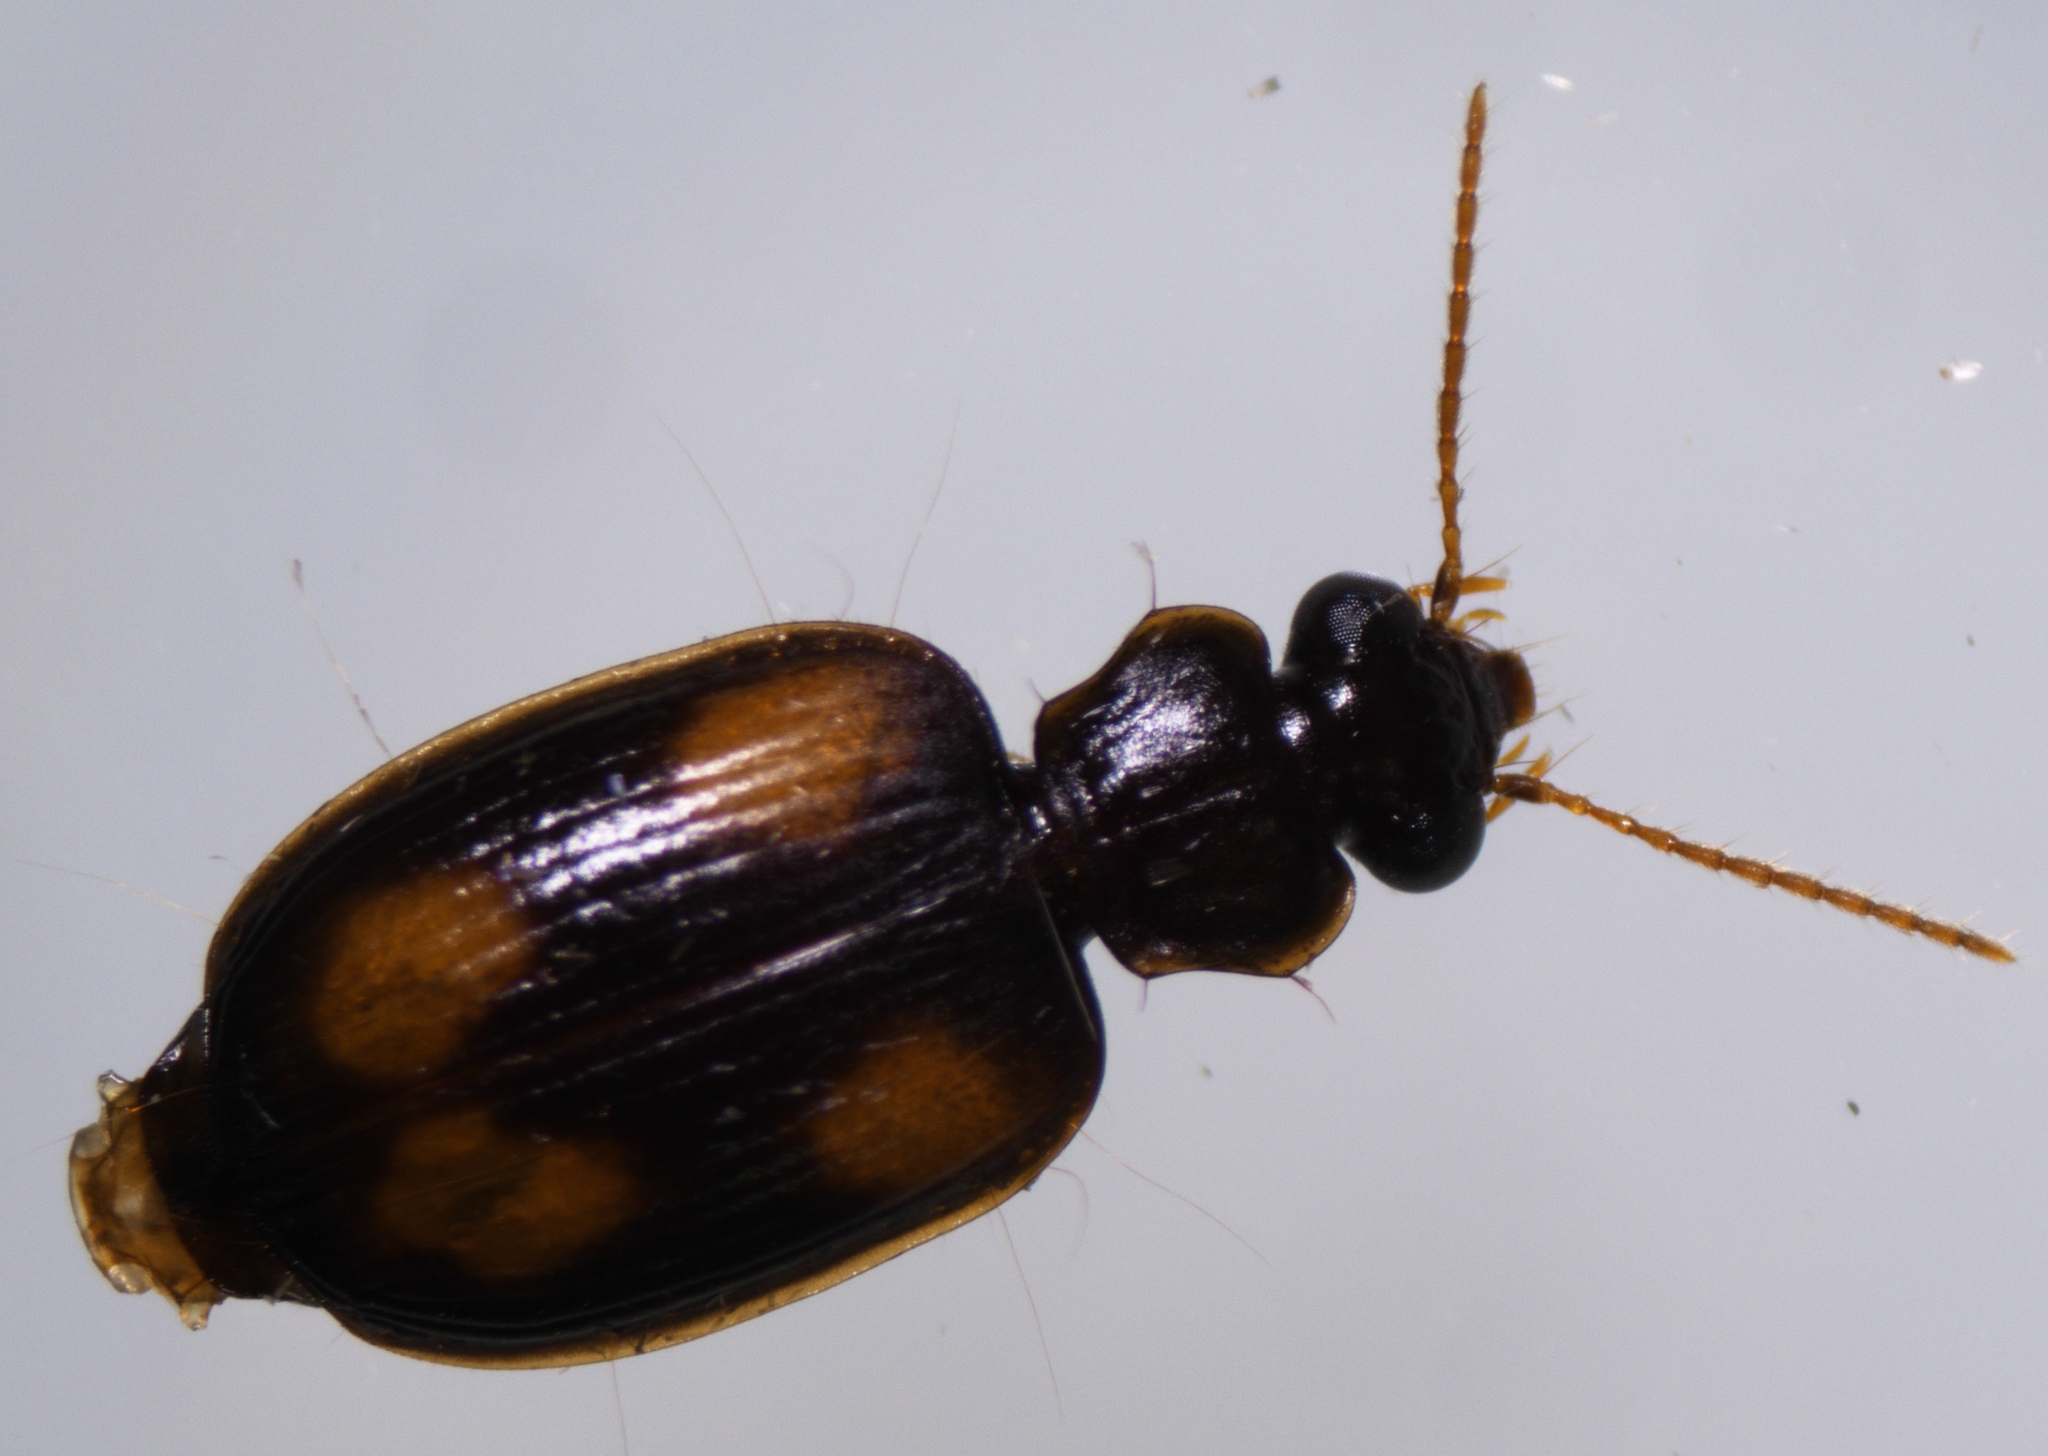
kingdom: Animalia
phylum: Arthropoda
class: Insecta
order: Coleoptera
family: Carabidae
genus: Mochtherus
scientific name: Mochtherus tetraspilotus
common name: Asian ground beetle
